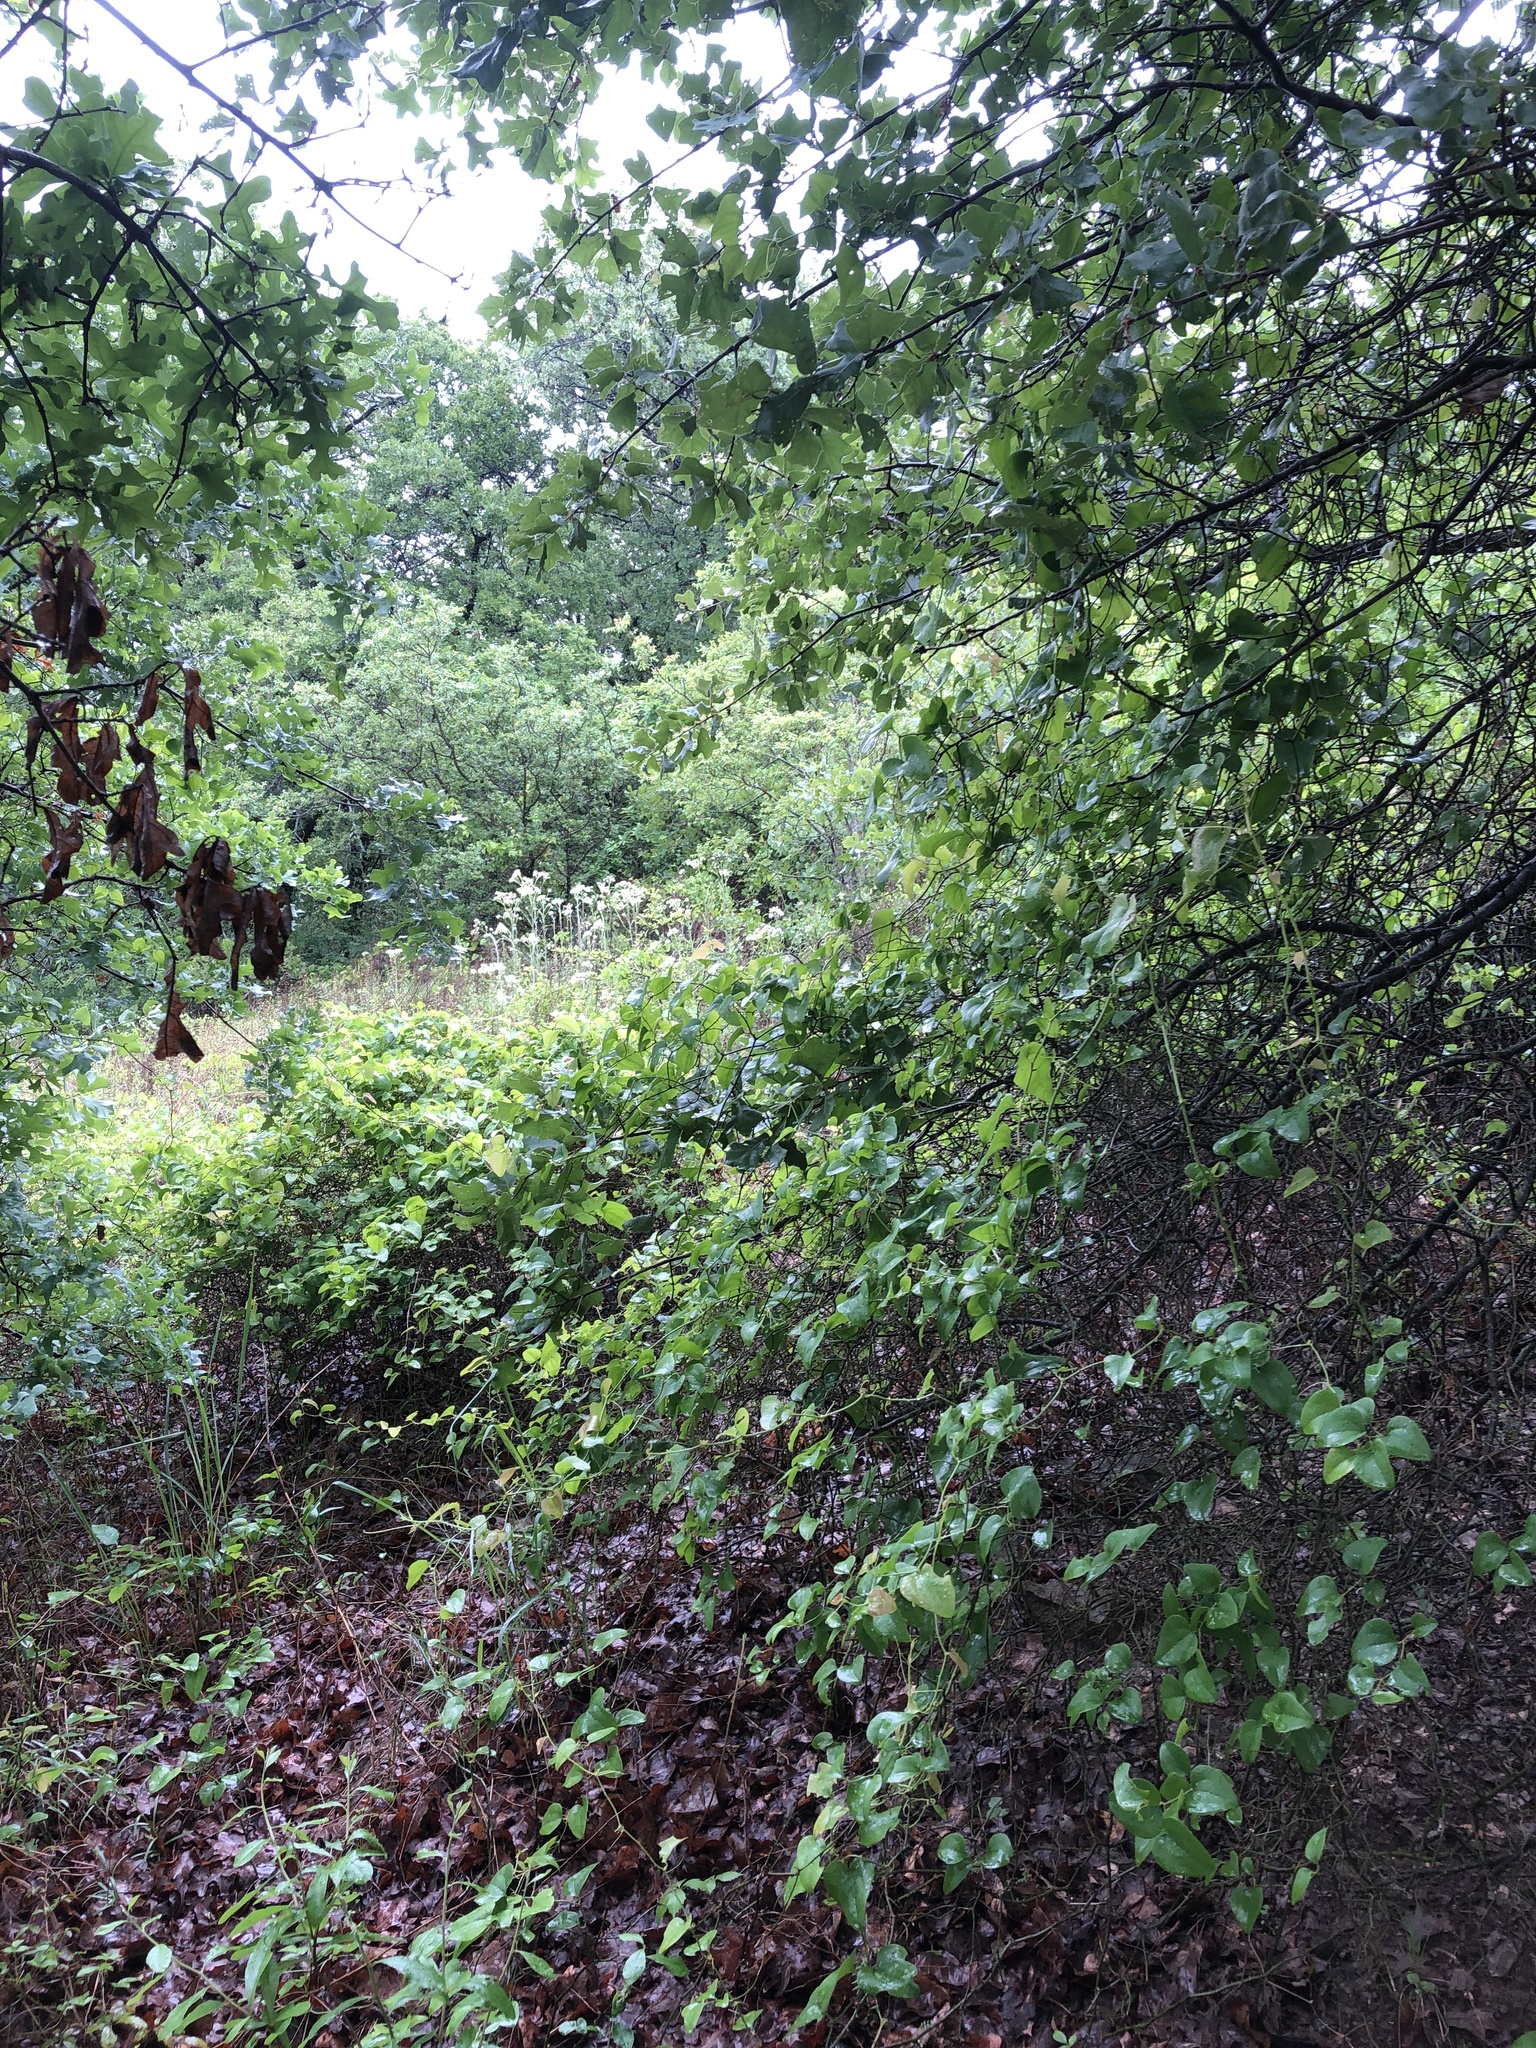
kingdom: Animalia
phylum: Chordata
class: Aves
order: Passeriformes
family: Vireonidae
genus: Vireo
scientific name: Vireo griseus
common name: White-eyed vireo
